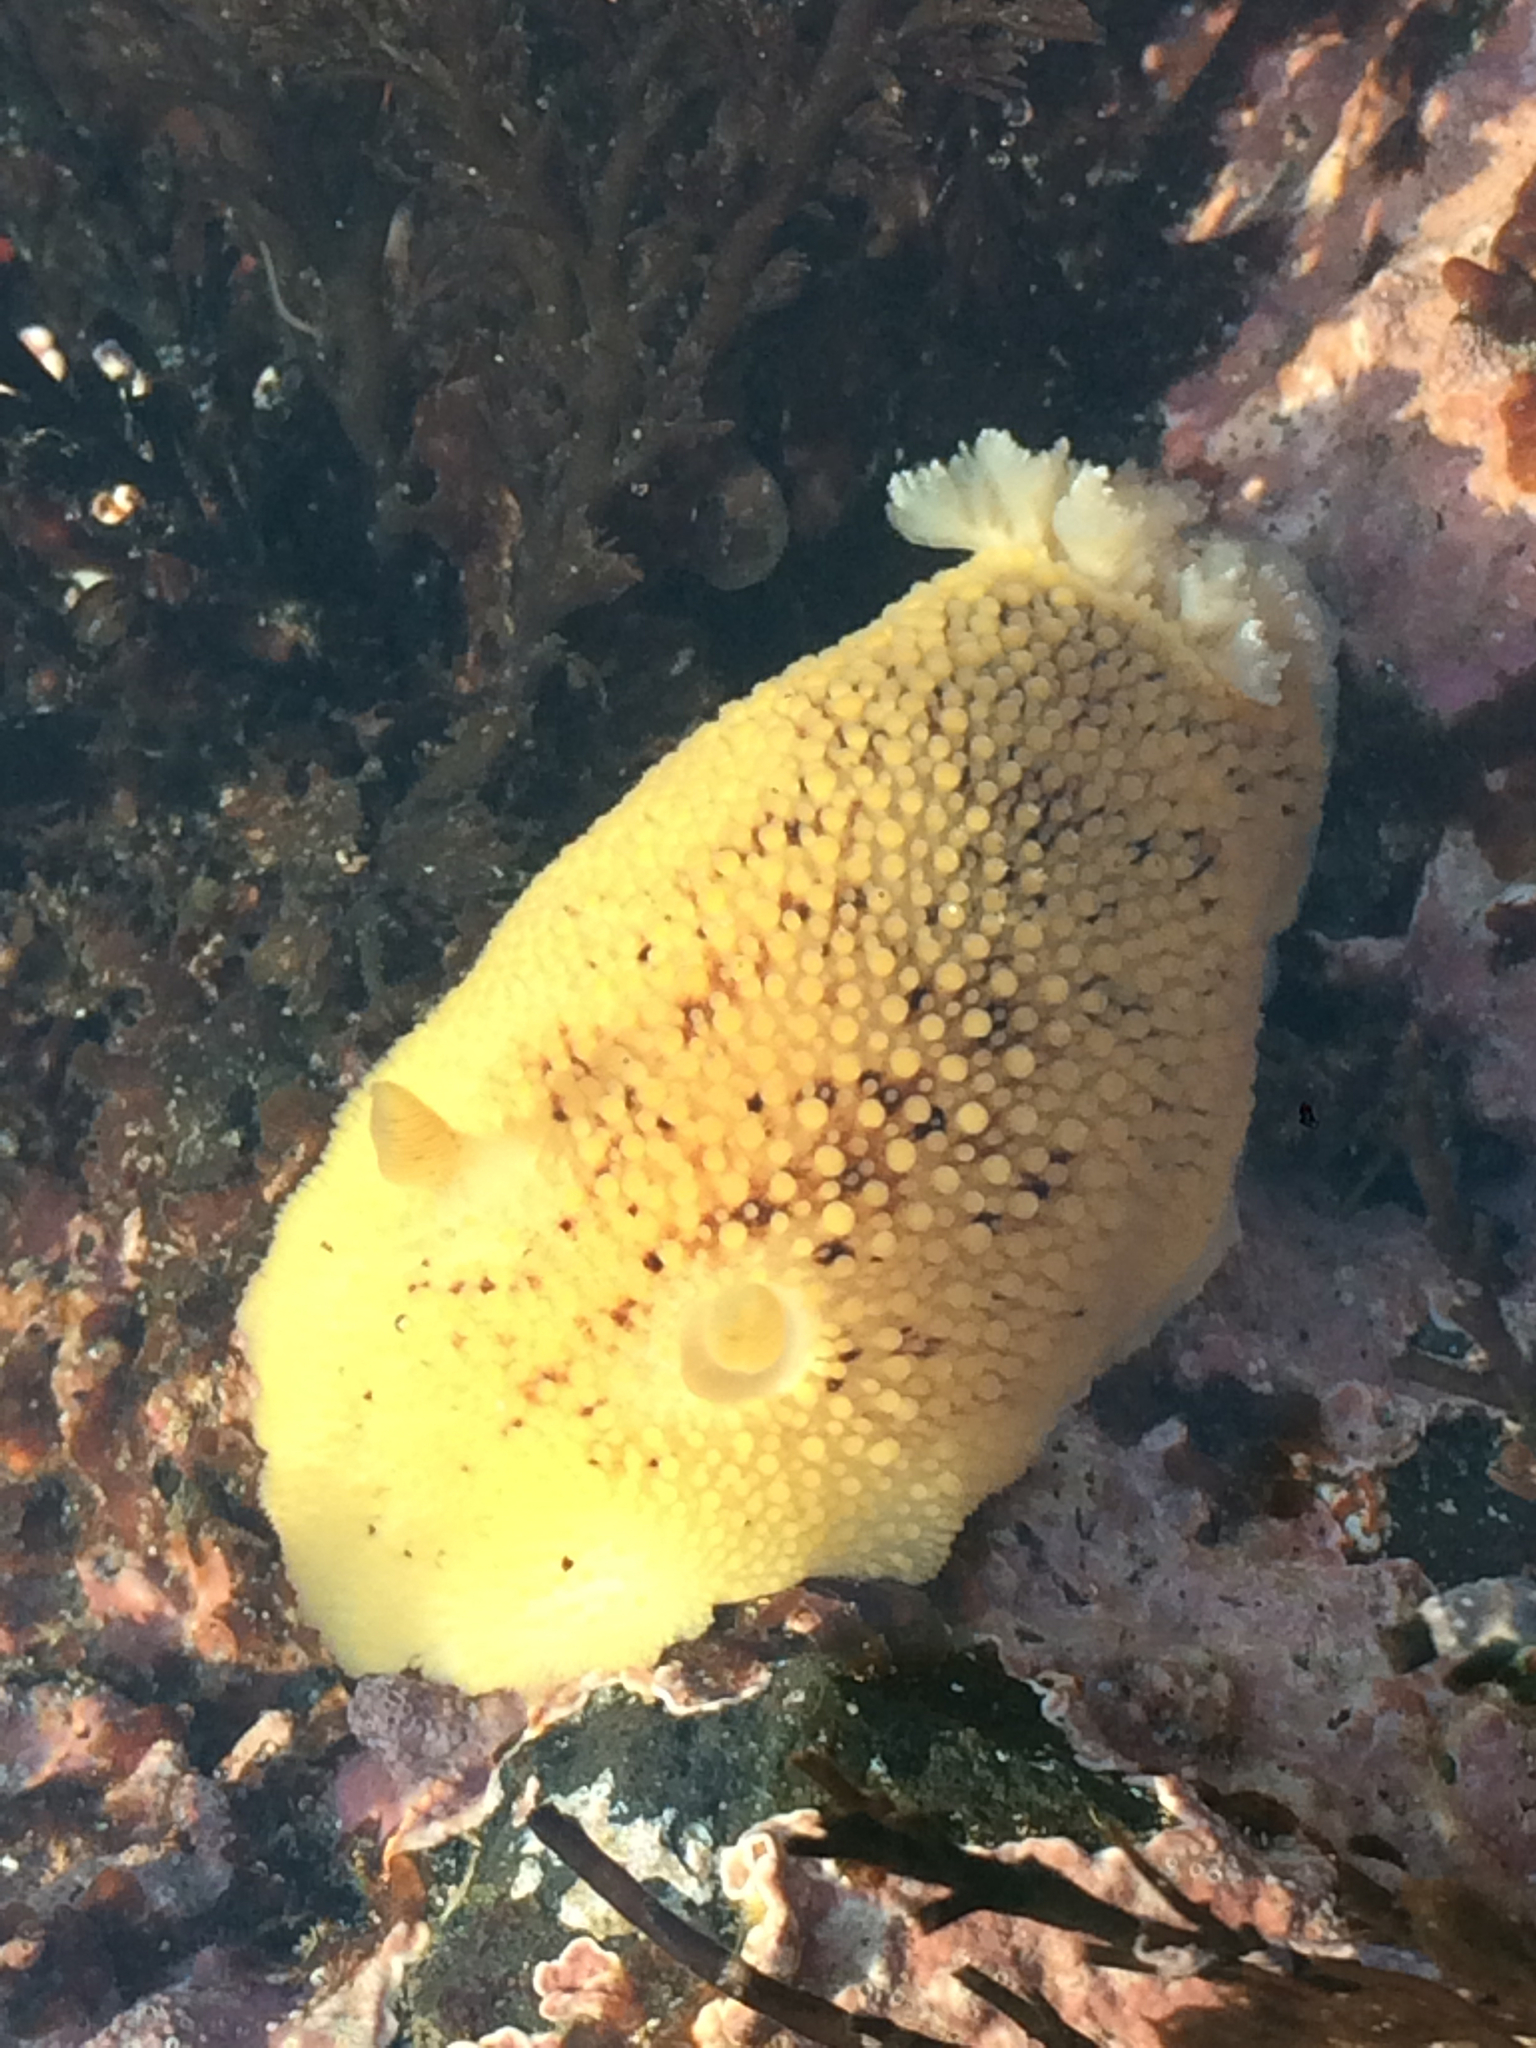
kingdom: Animalia
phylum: Mollusca
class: Gastropoda
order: Nudibranchia
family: Discodorididae
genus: Peltodoris
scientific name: Peltodoris nobilis
